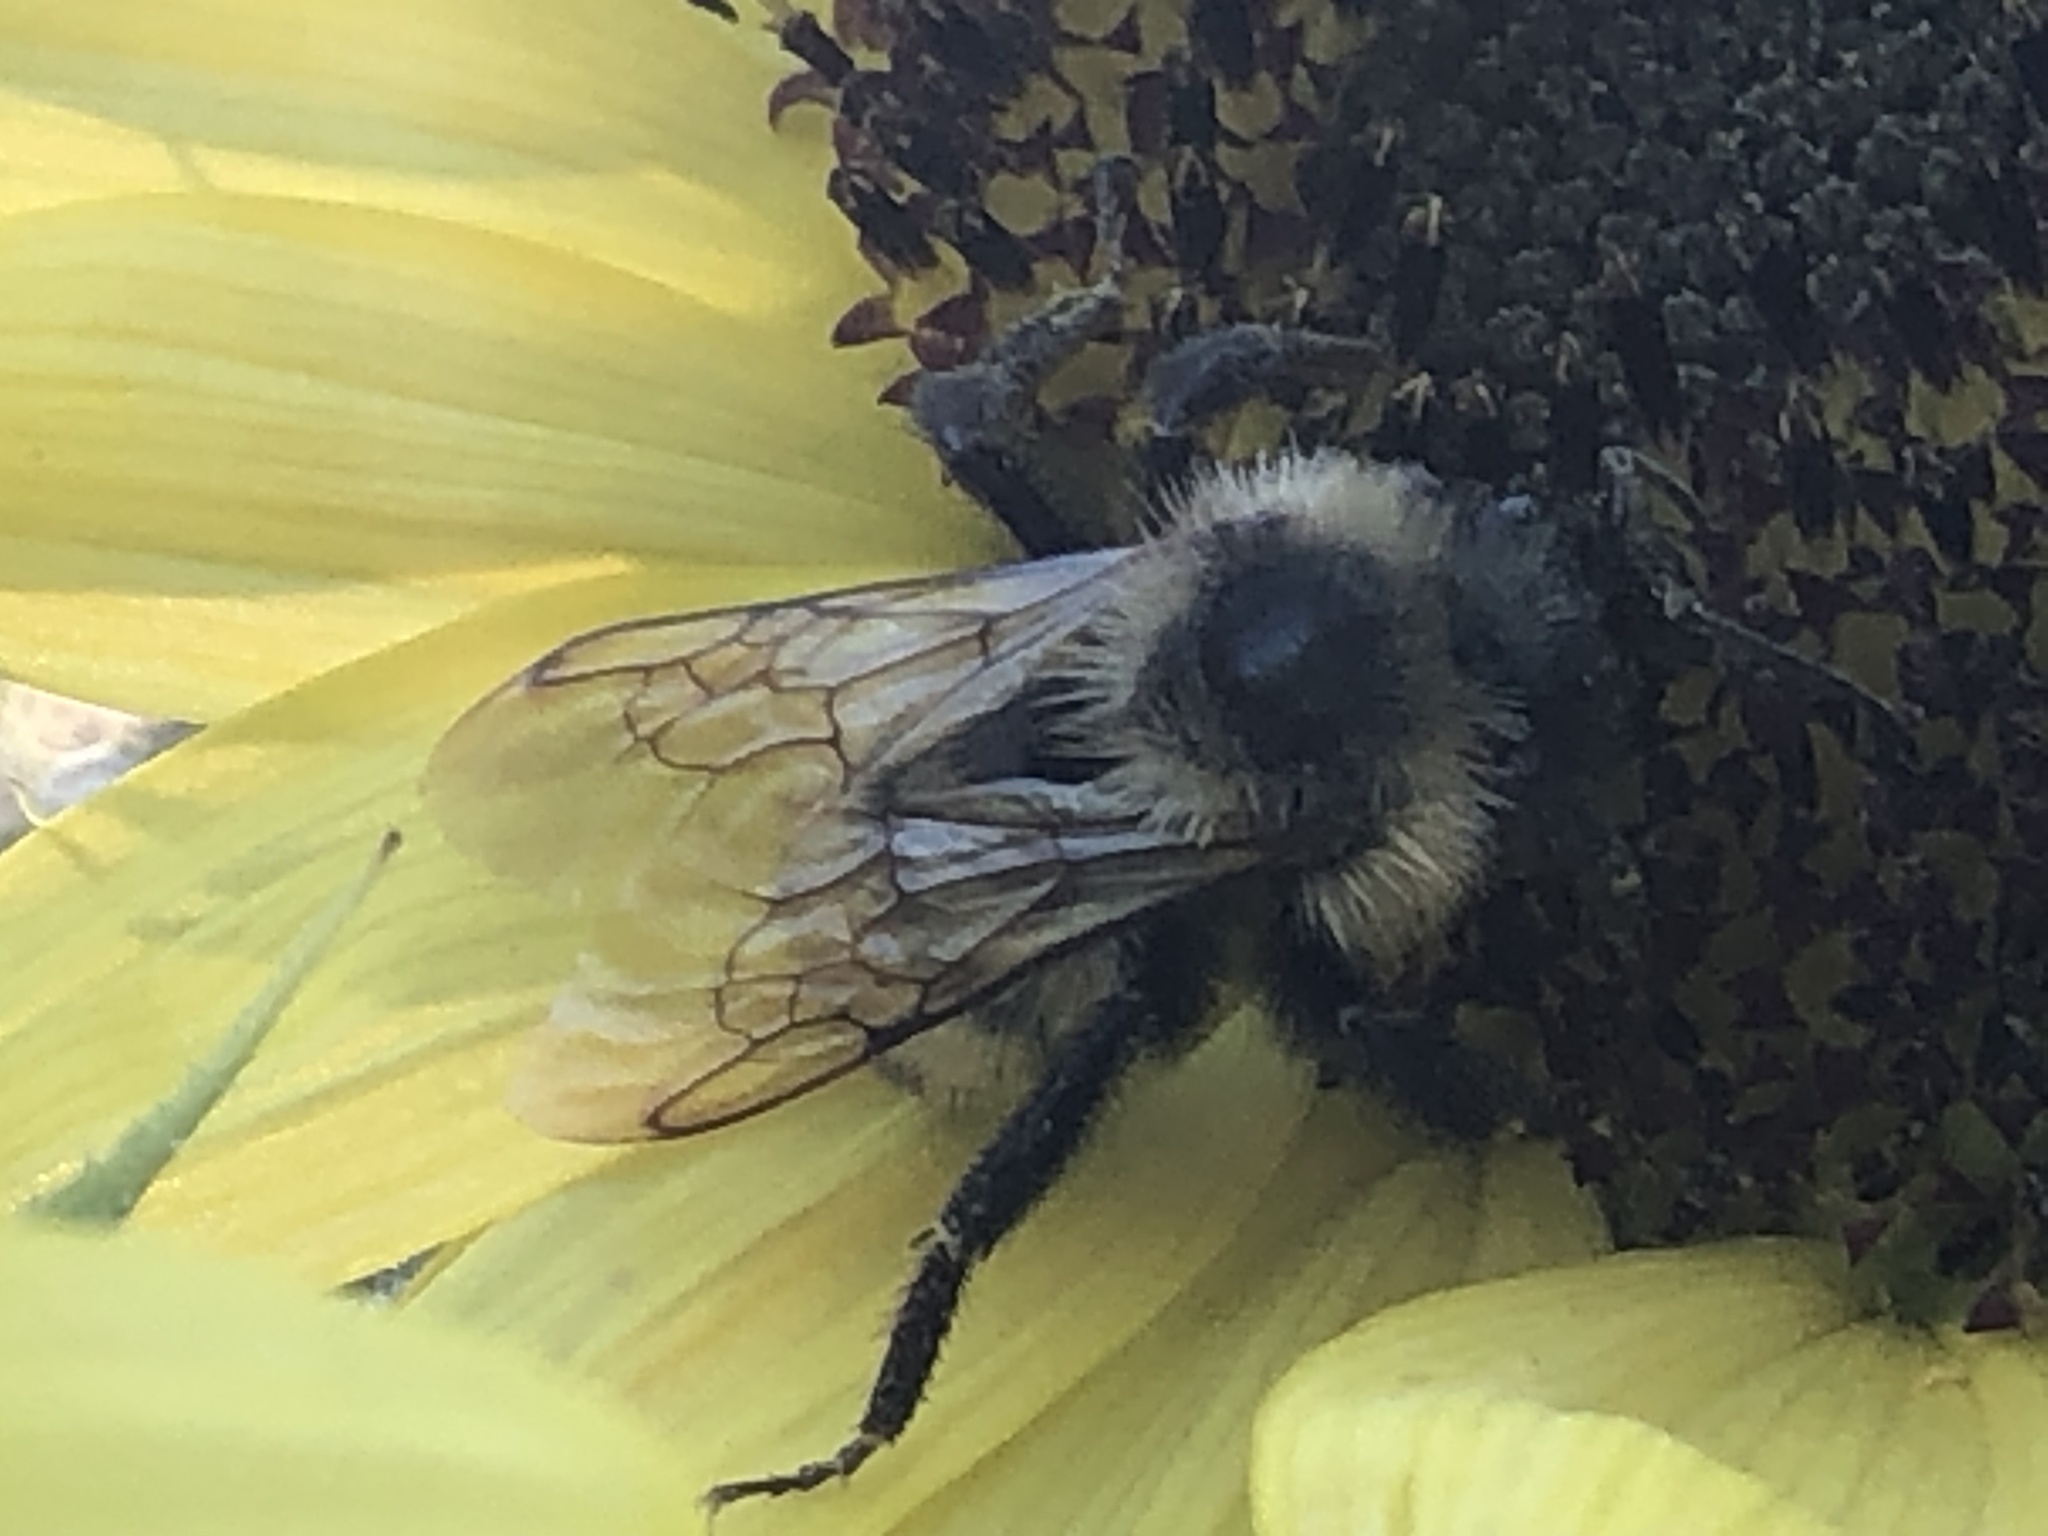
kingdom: Animalia
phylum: Arthropoda
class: Insecta
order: Hymenoptera
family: Apidae
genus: Bombus
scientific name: Bombus citrinus
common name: Lemon cuckoo bumble bee
